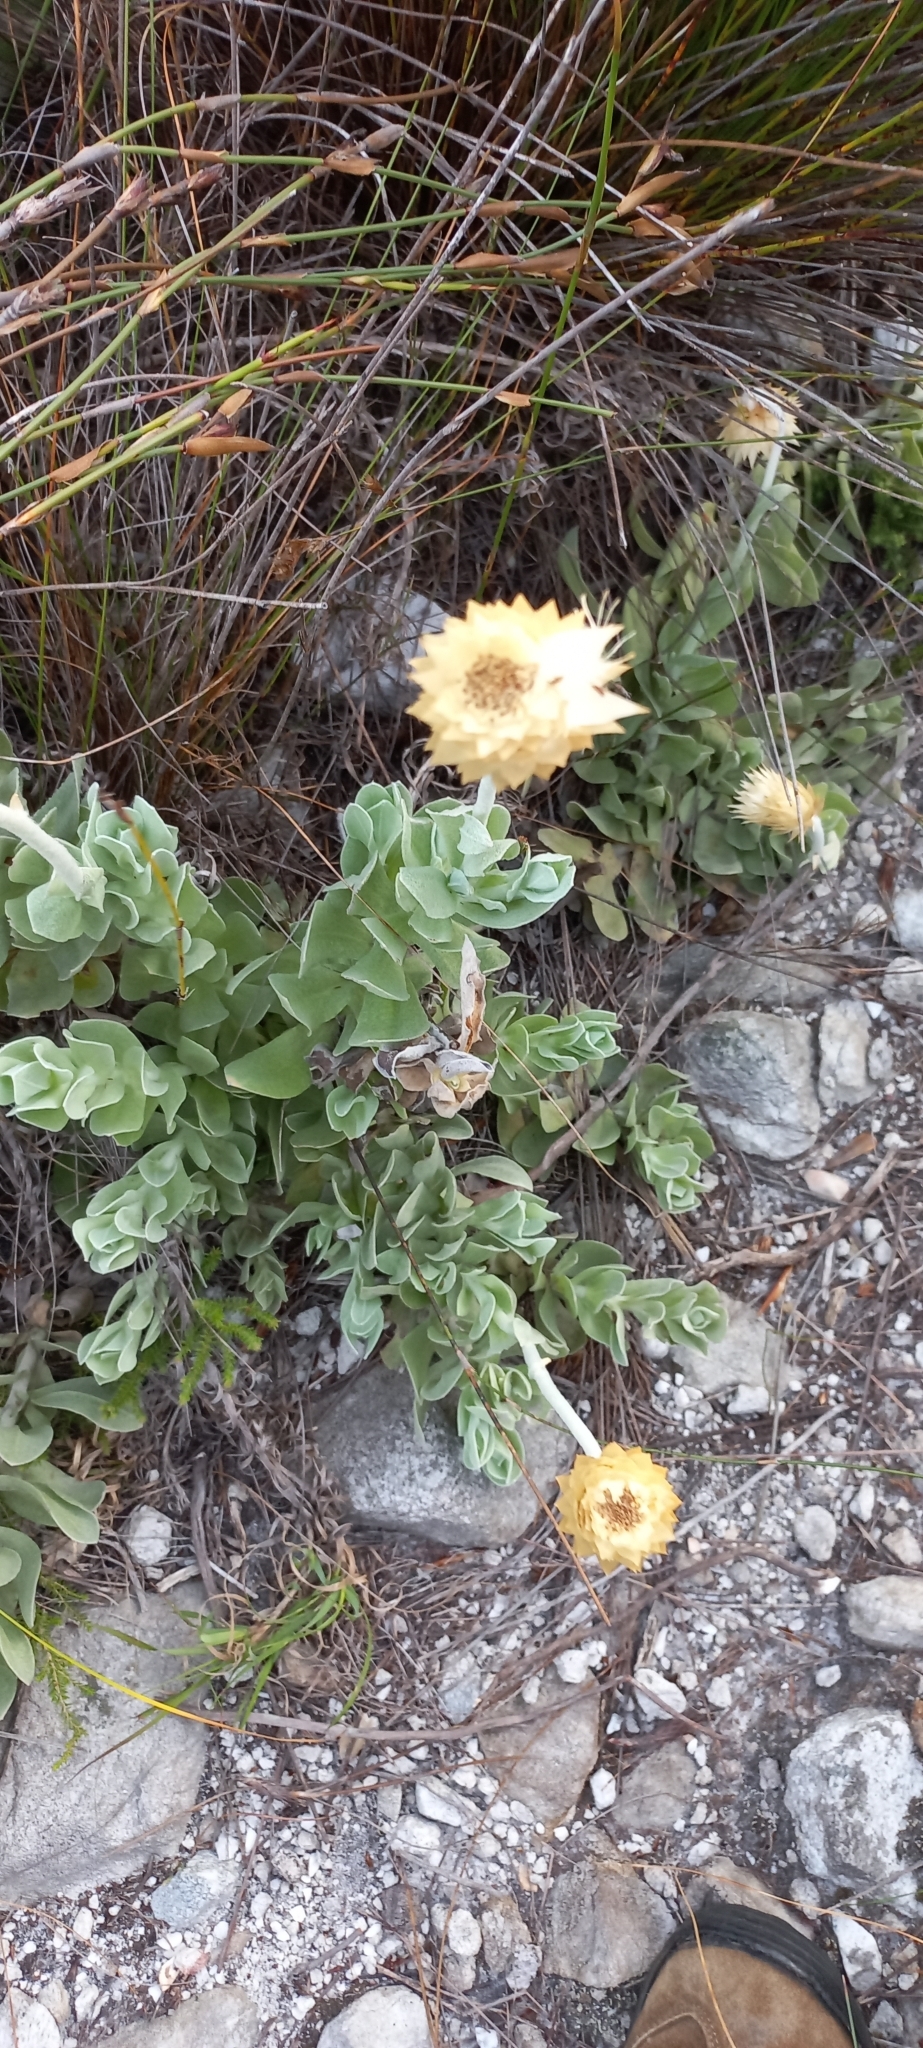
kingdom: Plantae
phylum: Tracheophyta
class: Magnoliopsida
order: Asterales
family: Asteraceae
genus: Syncarpha
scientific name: Syncarpha speciosissima
